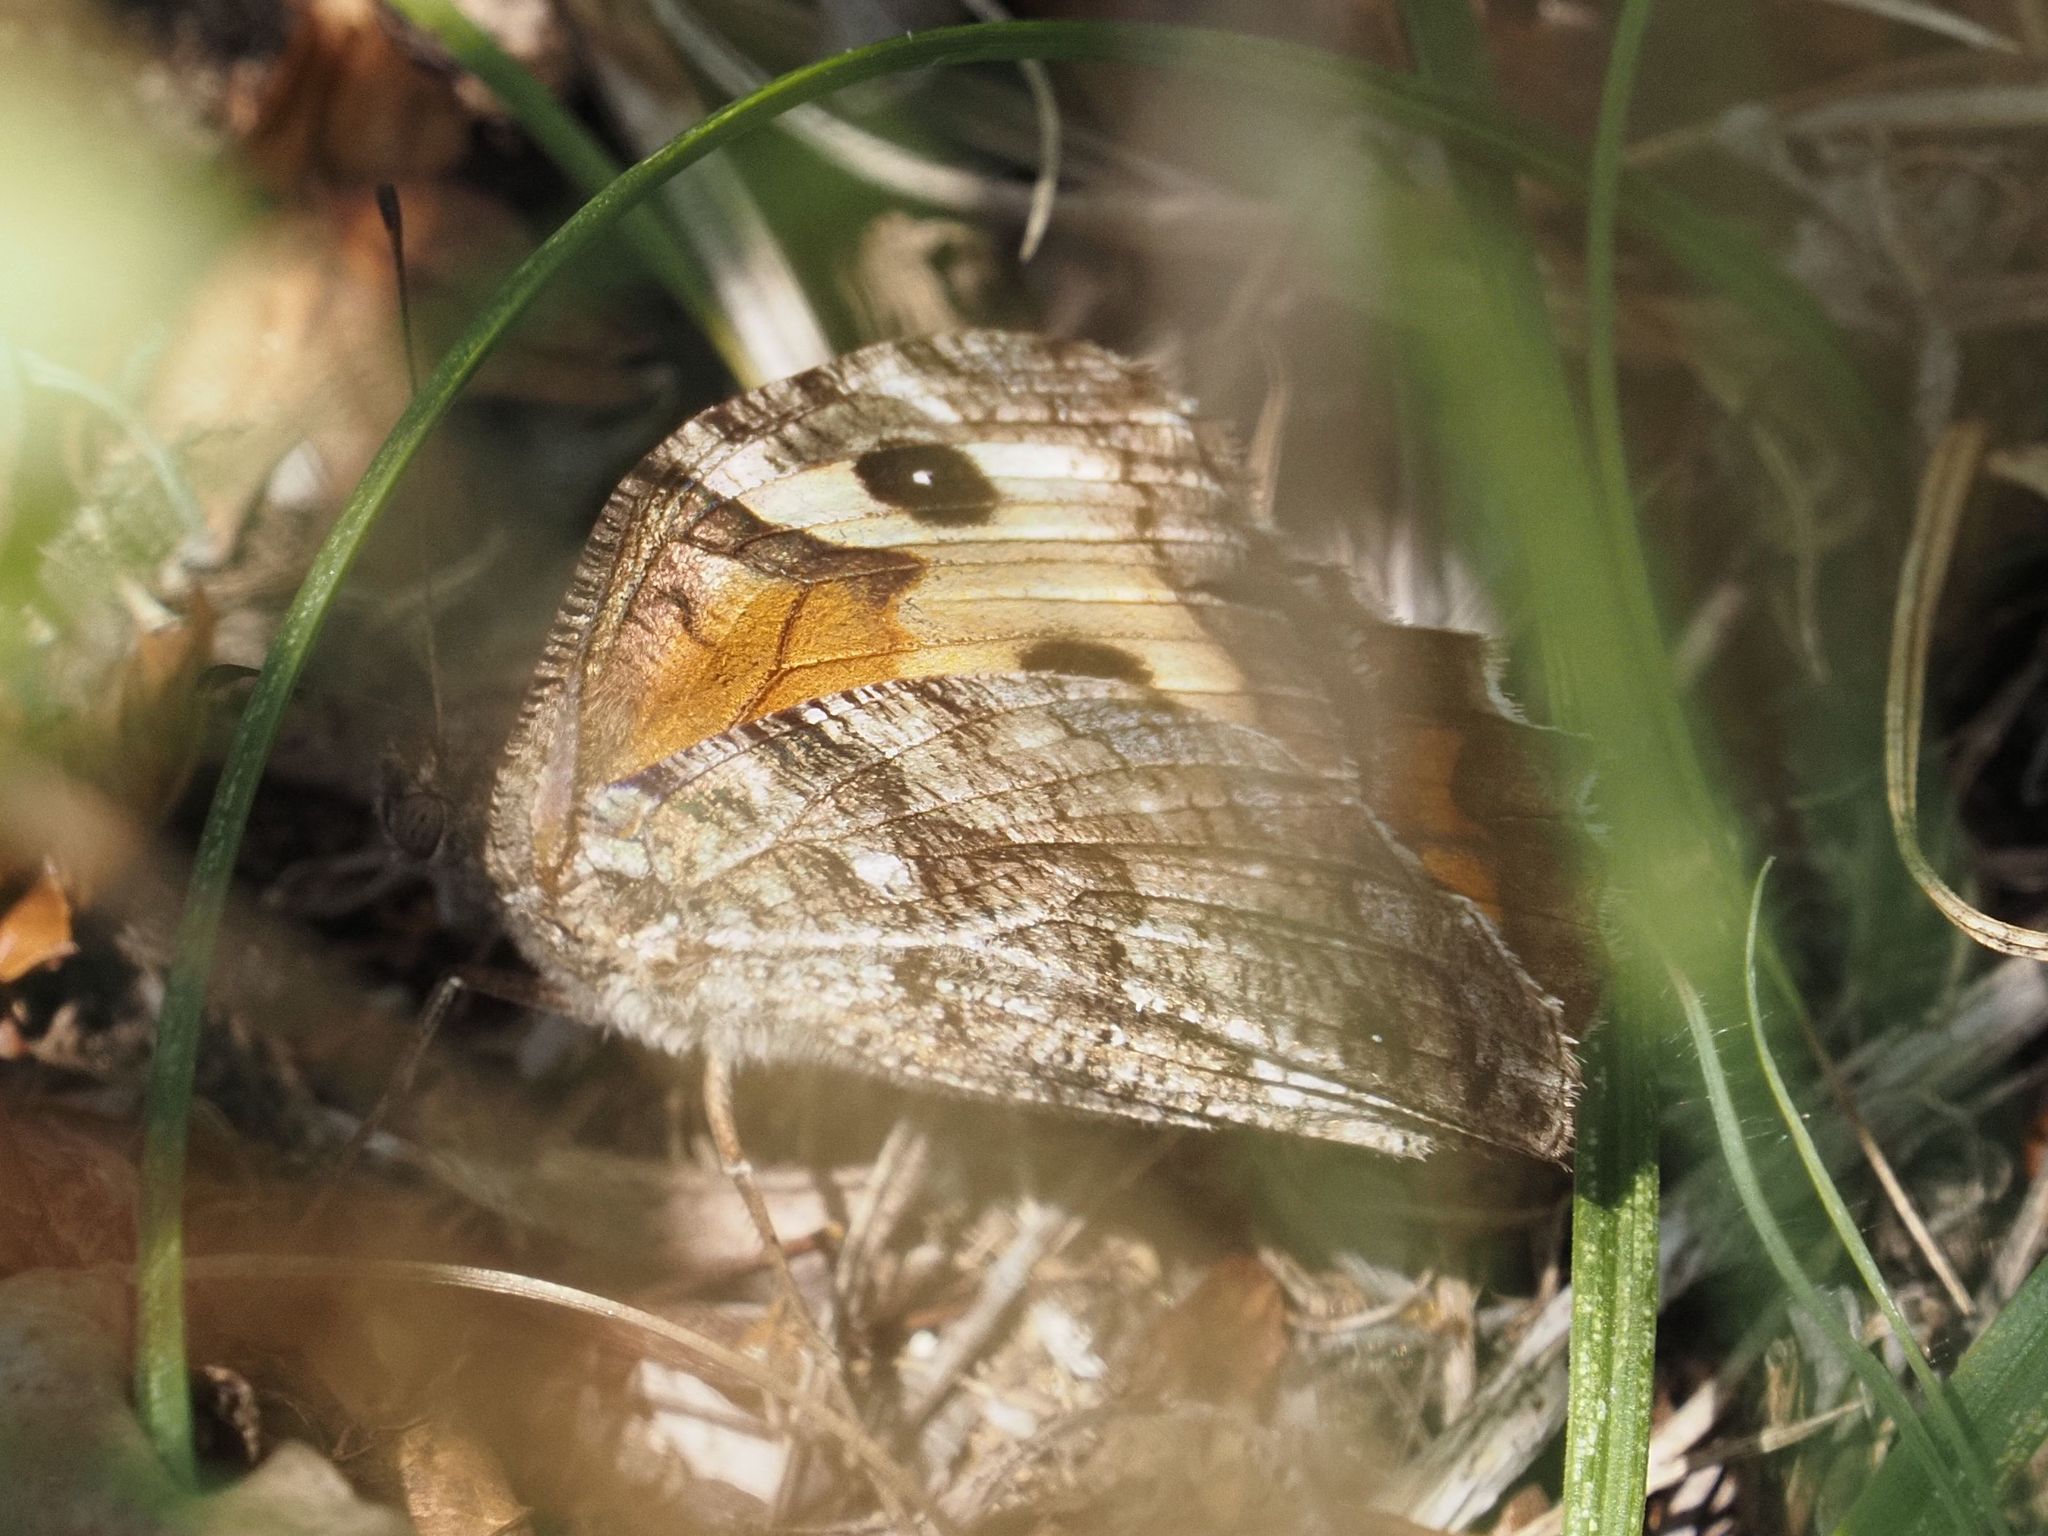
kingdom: Animalia
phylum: Arthropoda
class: Insecta
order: Lepidoptera
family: Nymphalidae
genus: Hipparchia
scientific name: Hipparchia semele
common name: Grayling
